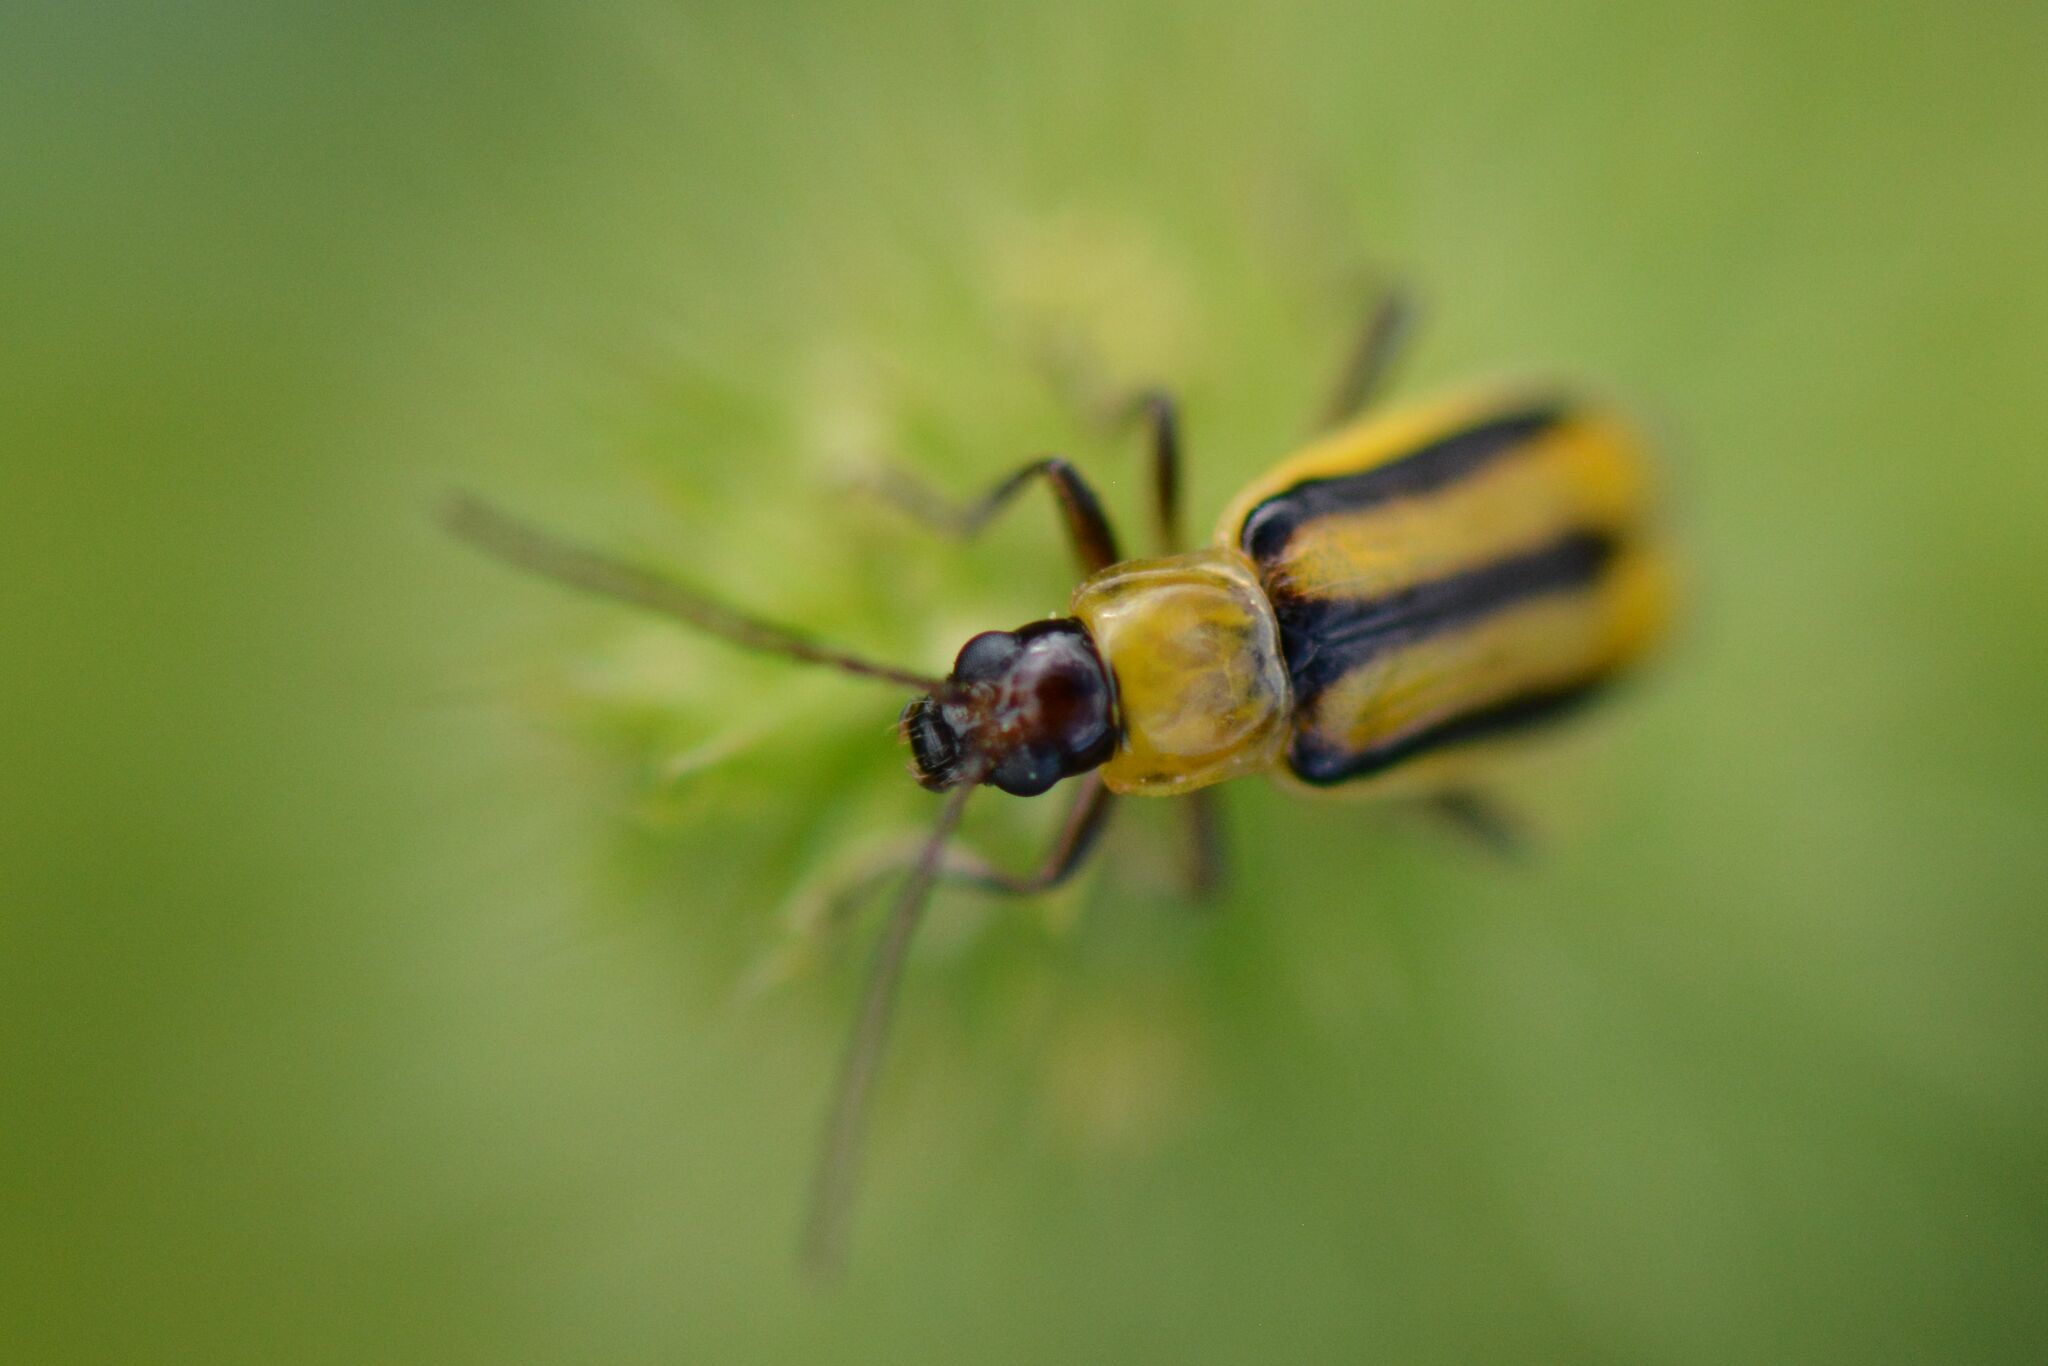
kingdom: Animalia
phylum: Arthropoda
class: Insecta
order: Coleoptera
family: Chrysomelidae
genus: Diabrotica
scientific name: Diabrotica virgifera
